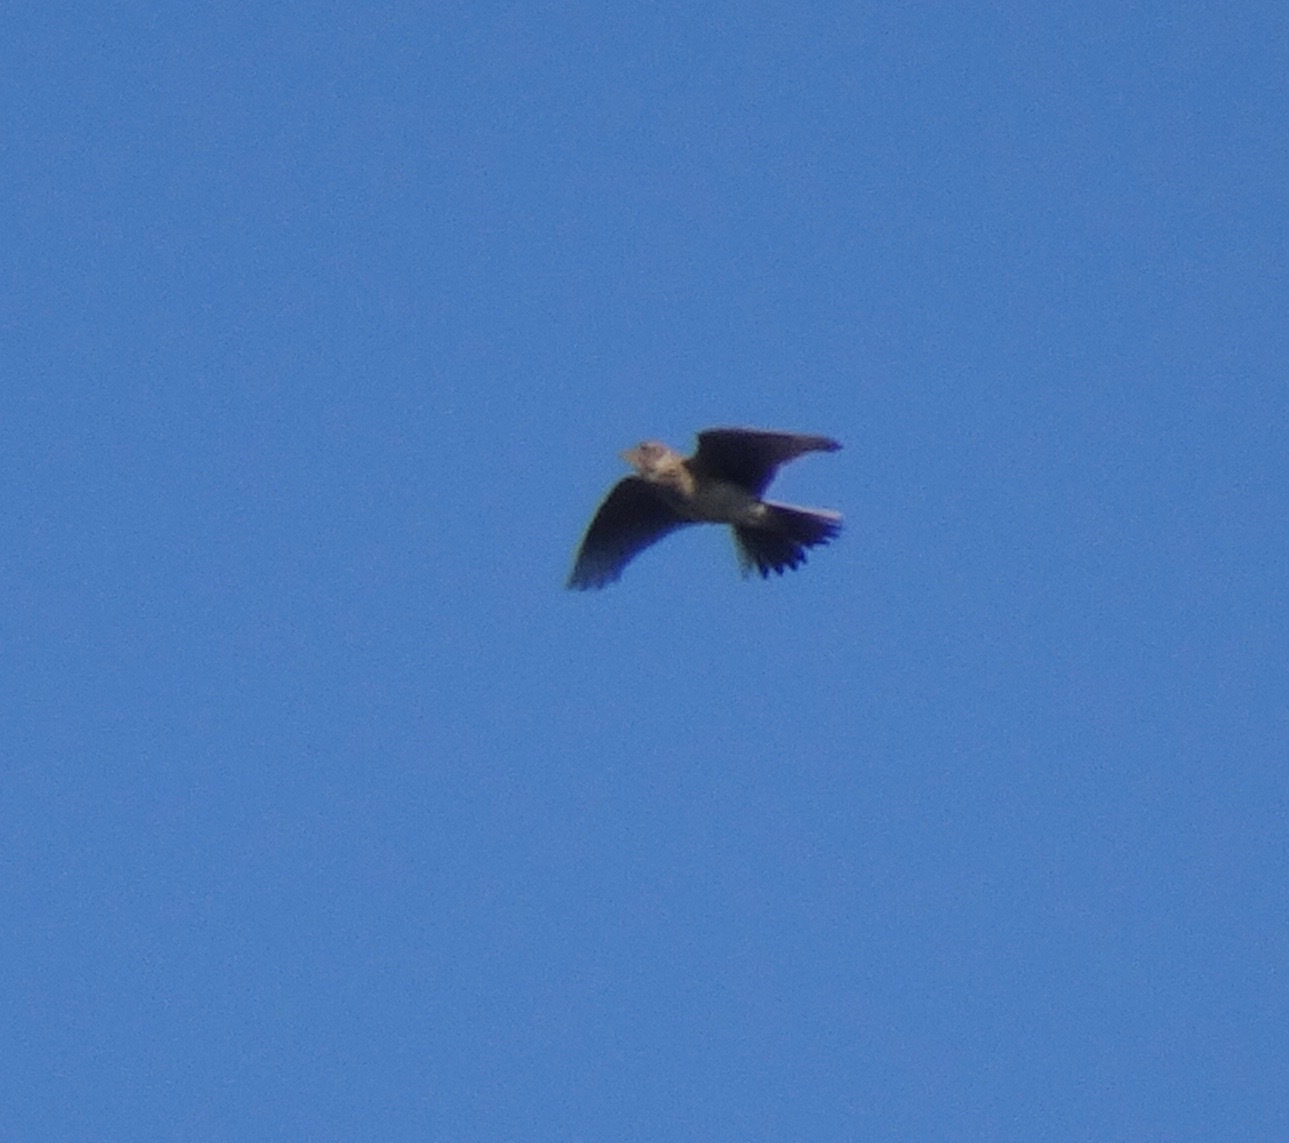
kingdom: Animalia
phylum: Chordata
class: Aves
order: Passeriformes
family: Alaudidae
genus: Alauda
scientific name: Alauda arvensis
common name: Eurasian skylark
